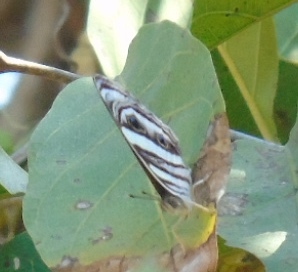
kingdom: Animalia
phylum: Arthropoda
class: Insecta
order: Lepidoptera
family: Nymphalidae
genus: Dynamine
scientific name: Dynamine mylitta
